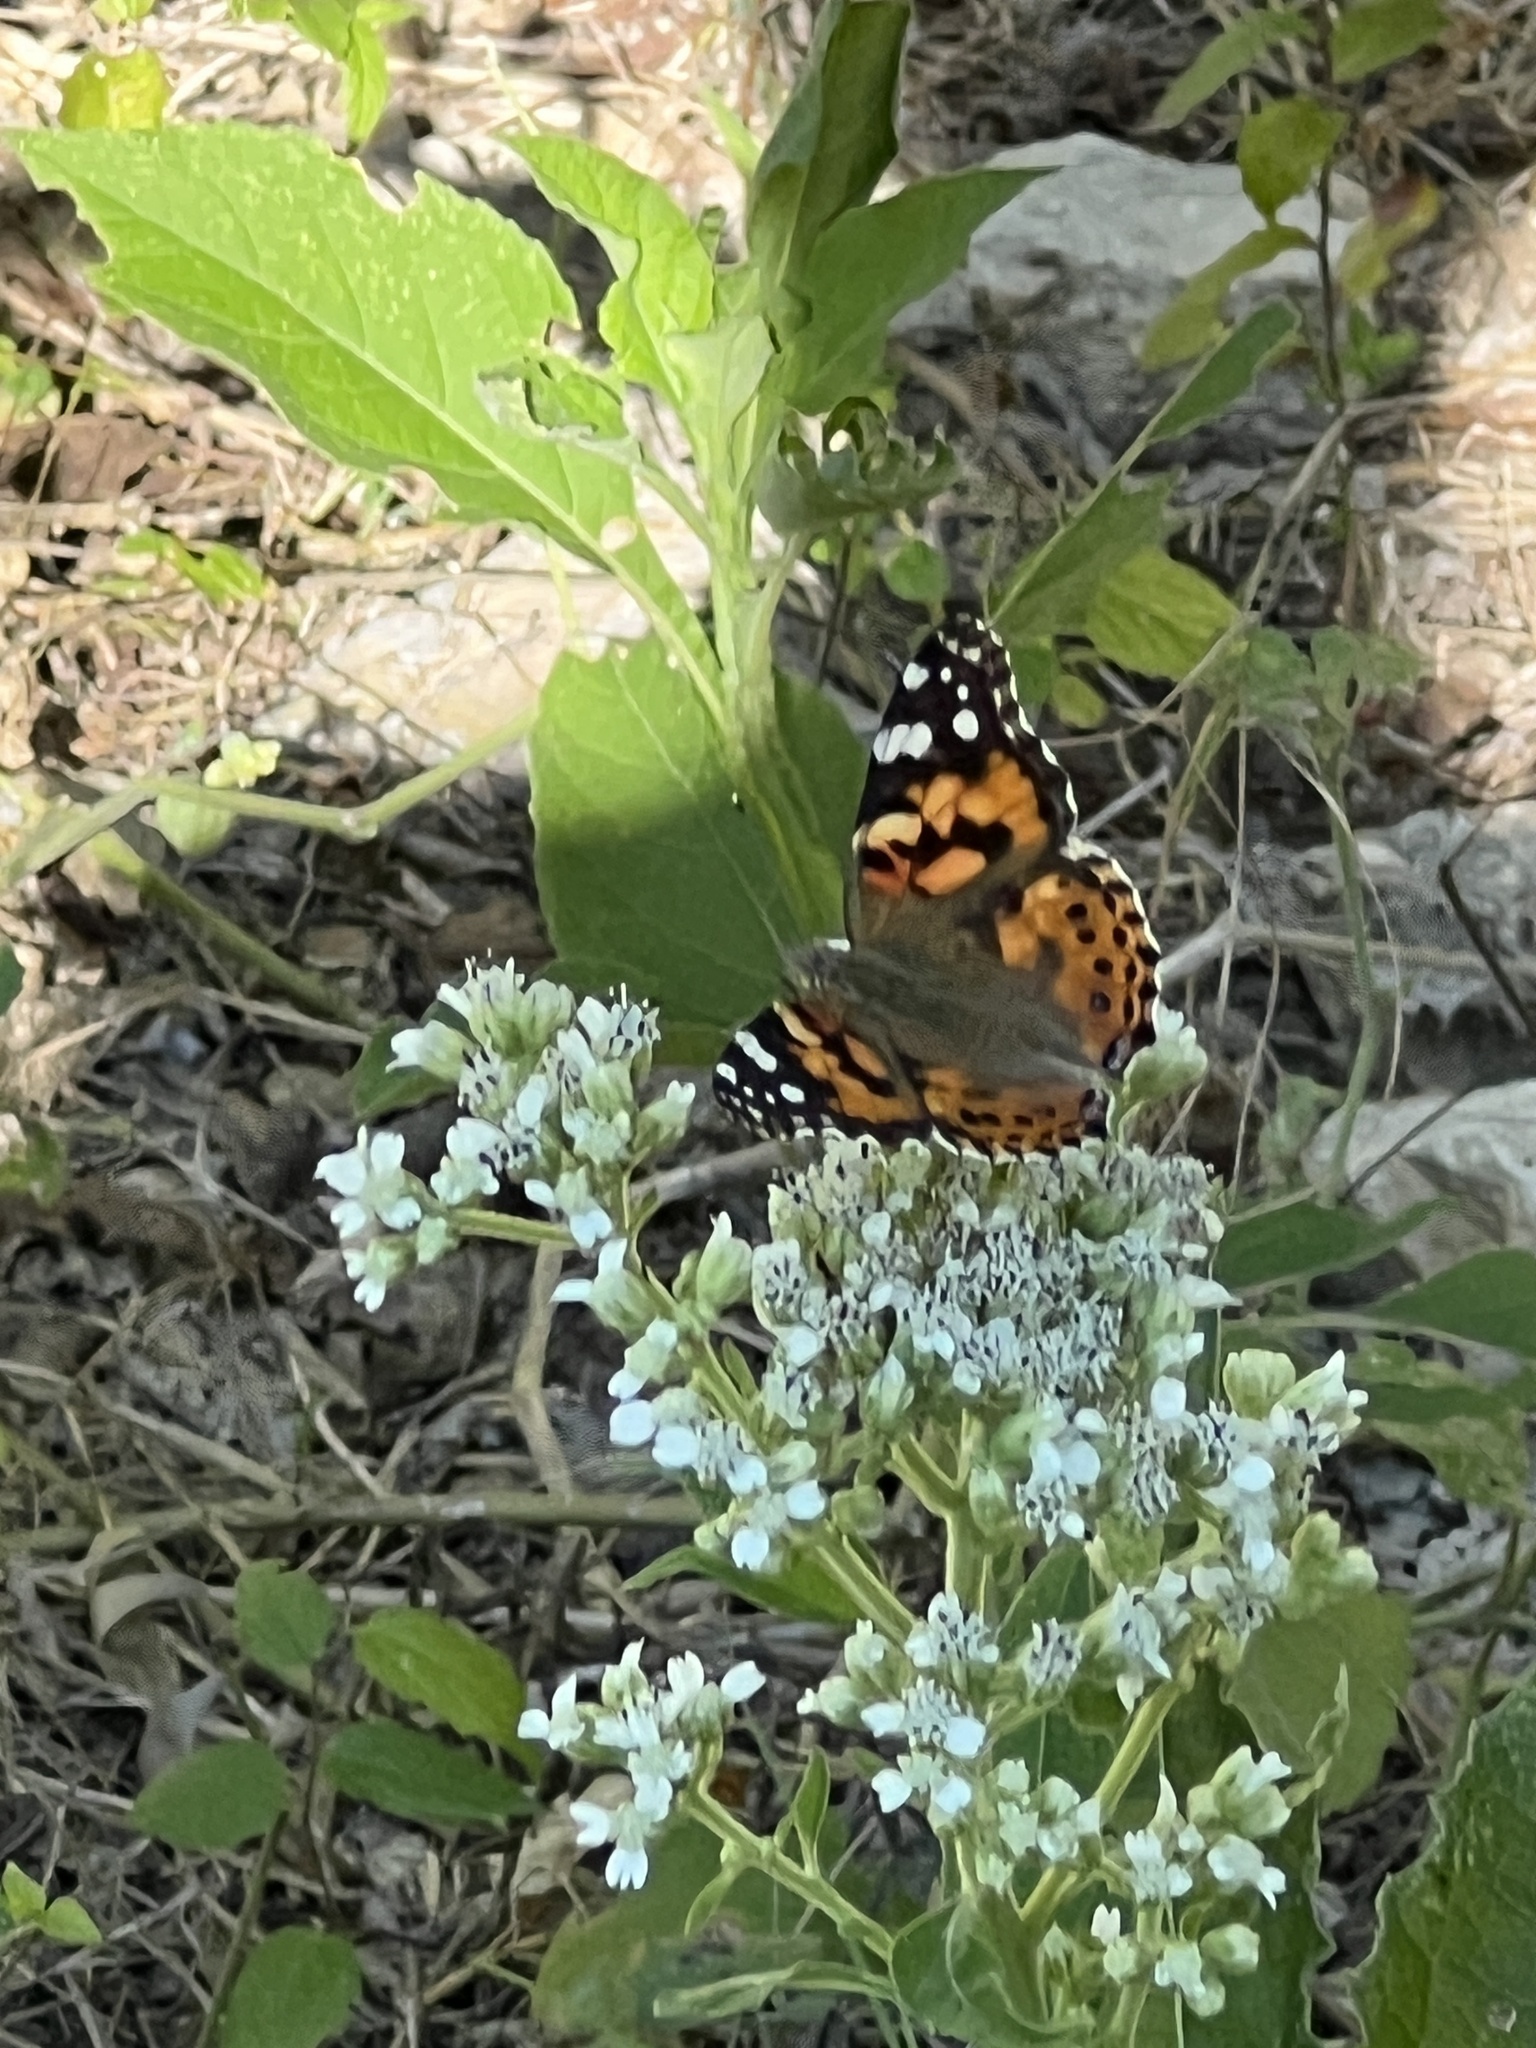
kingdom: Animalia
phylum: Arthropoda
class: Insecta
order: Lepidoptera
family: Nymphalidae
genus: Vanessa
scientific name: Vanessa cardui
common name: Painted lady
